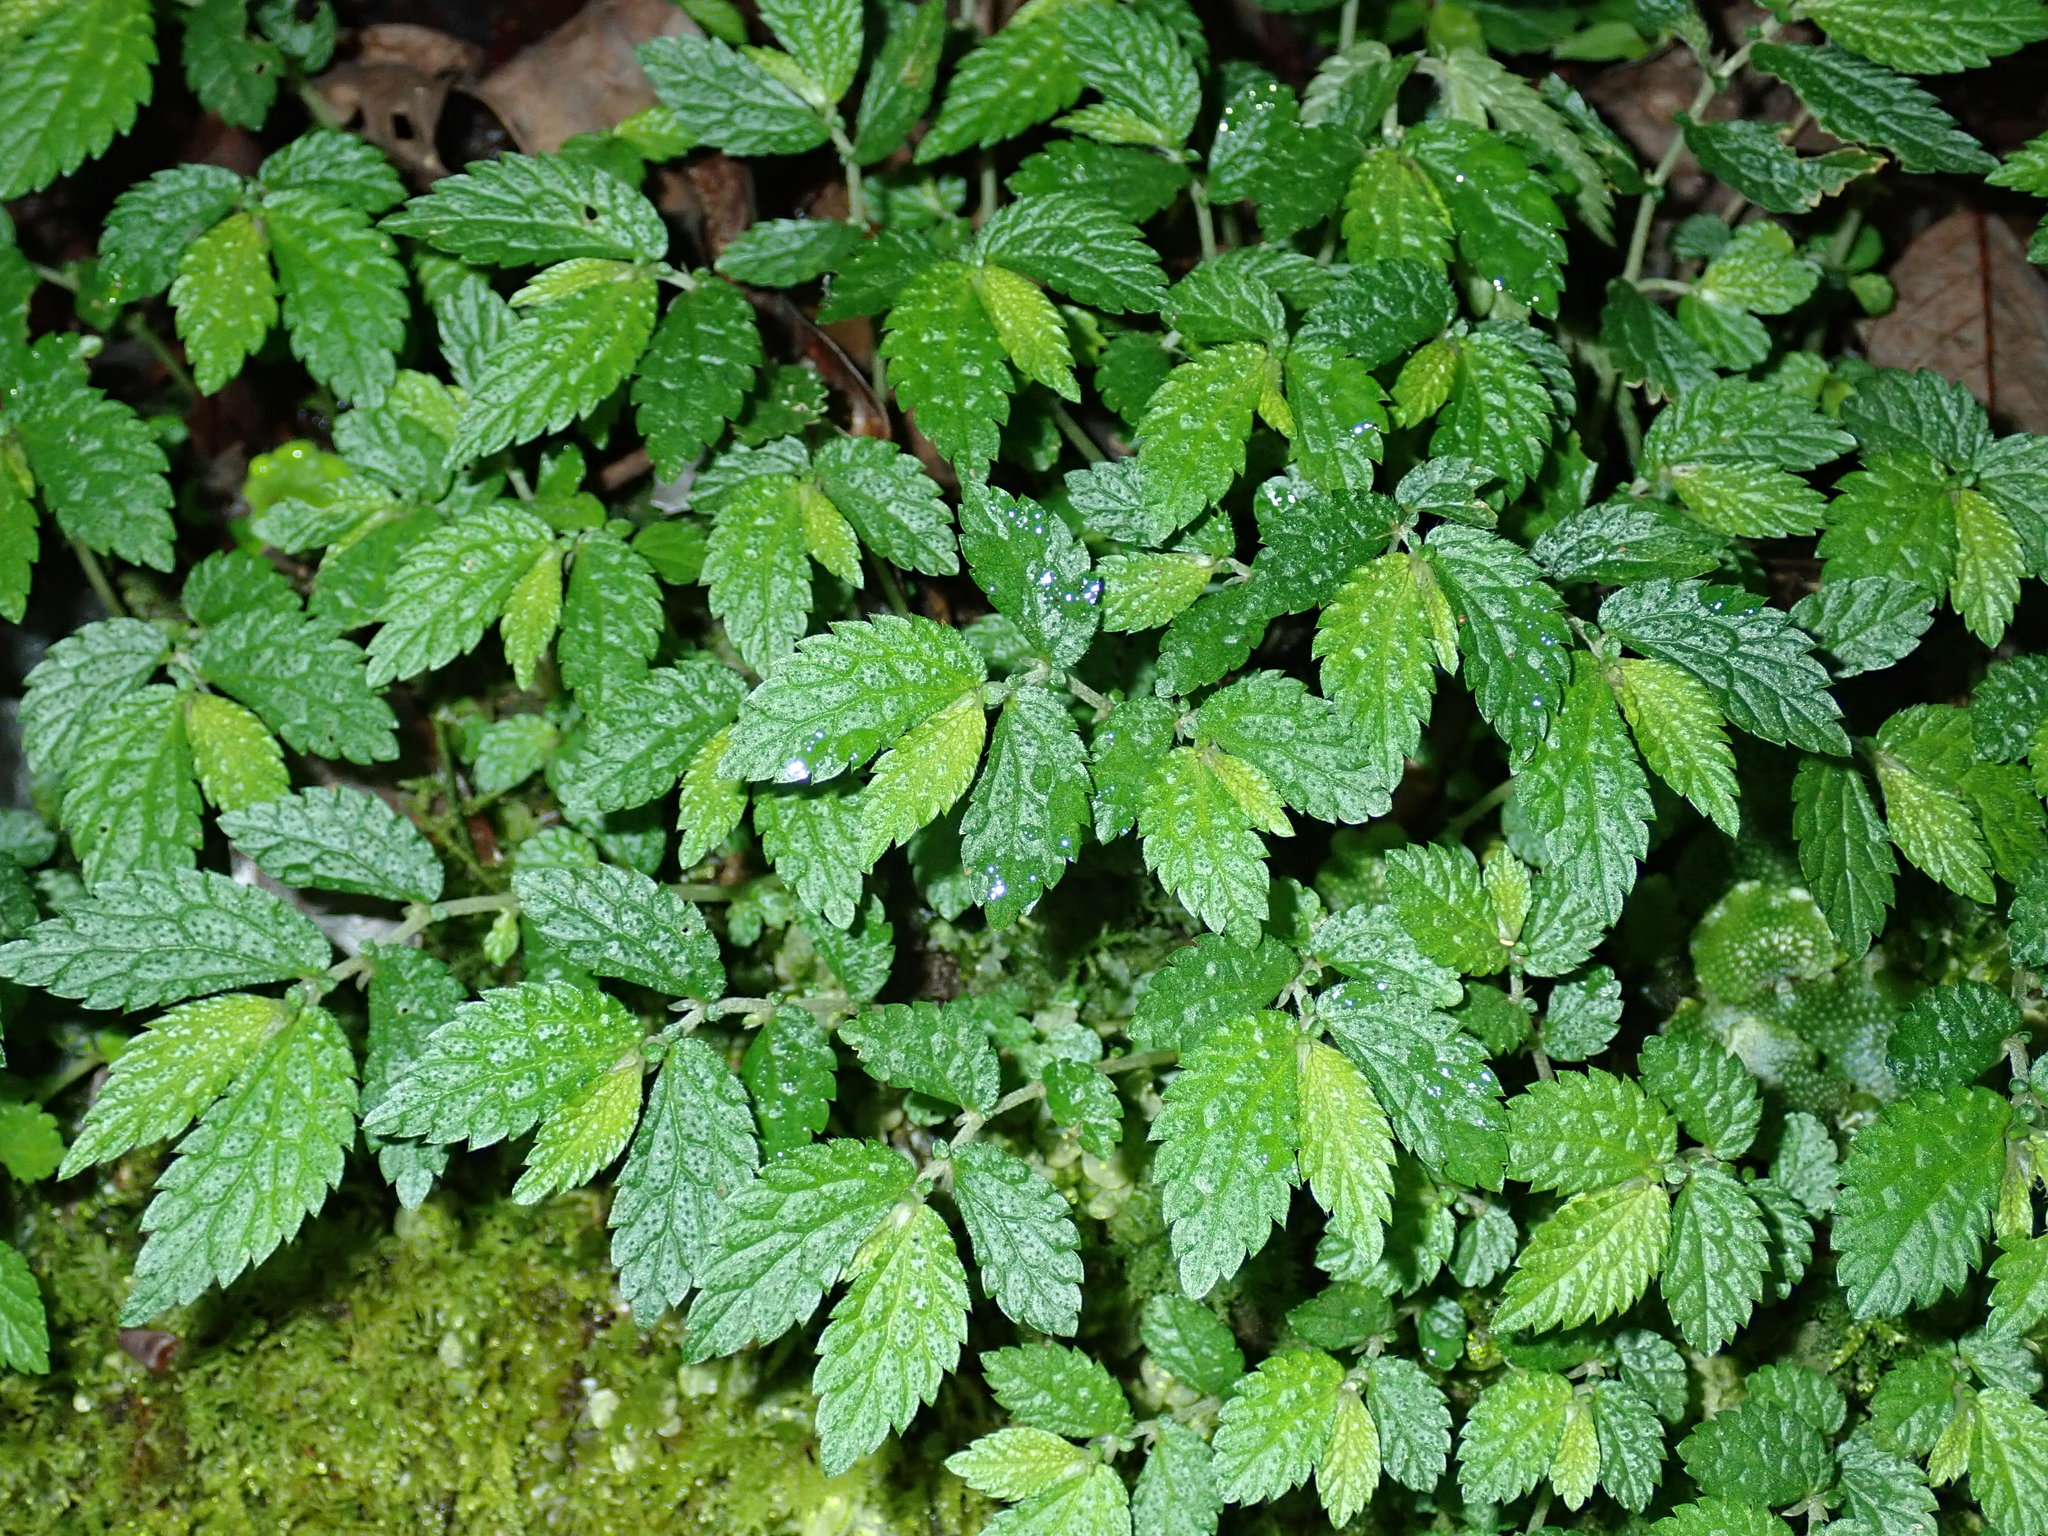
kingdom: Plantae
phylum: Tracheophyta
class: Magnoliopsida
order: Rosales
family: Urticaceae
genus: Elatostema
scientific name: Elatostema parvum
